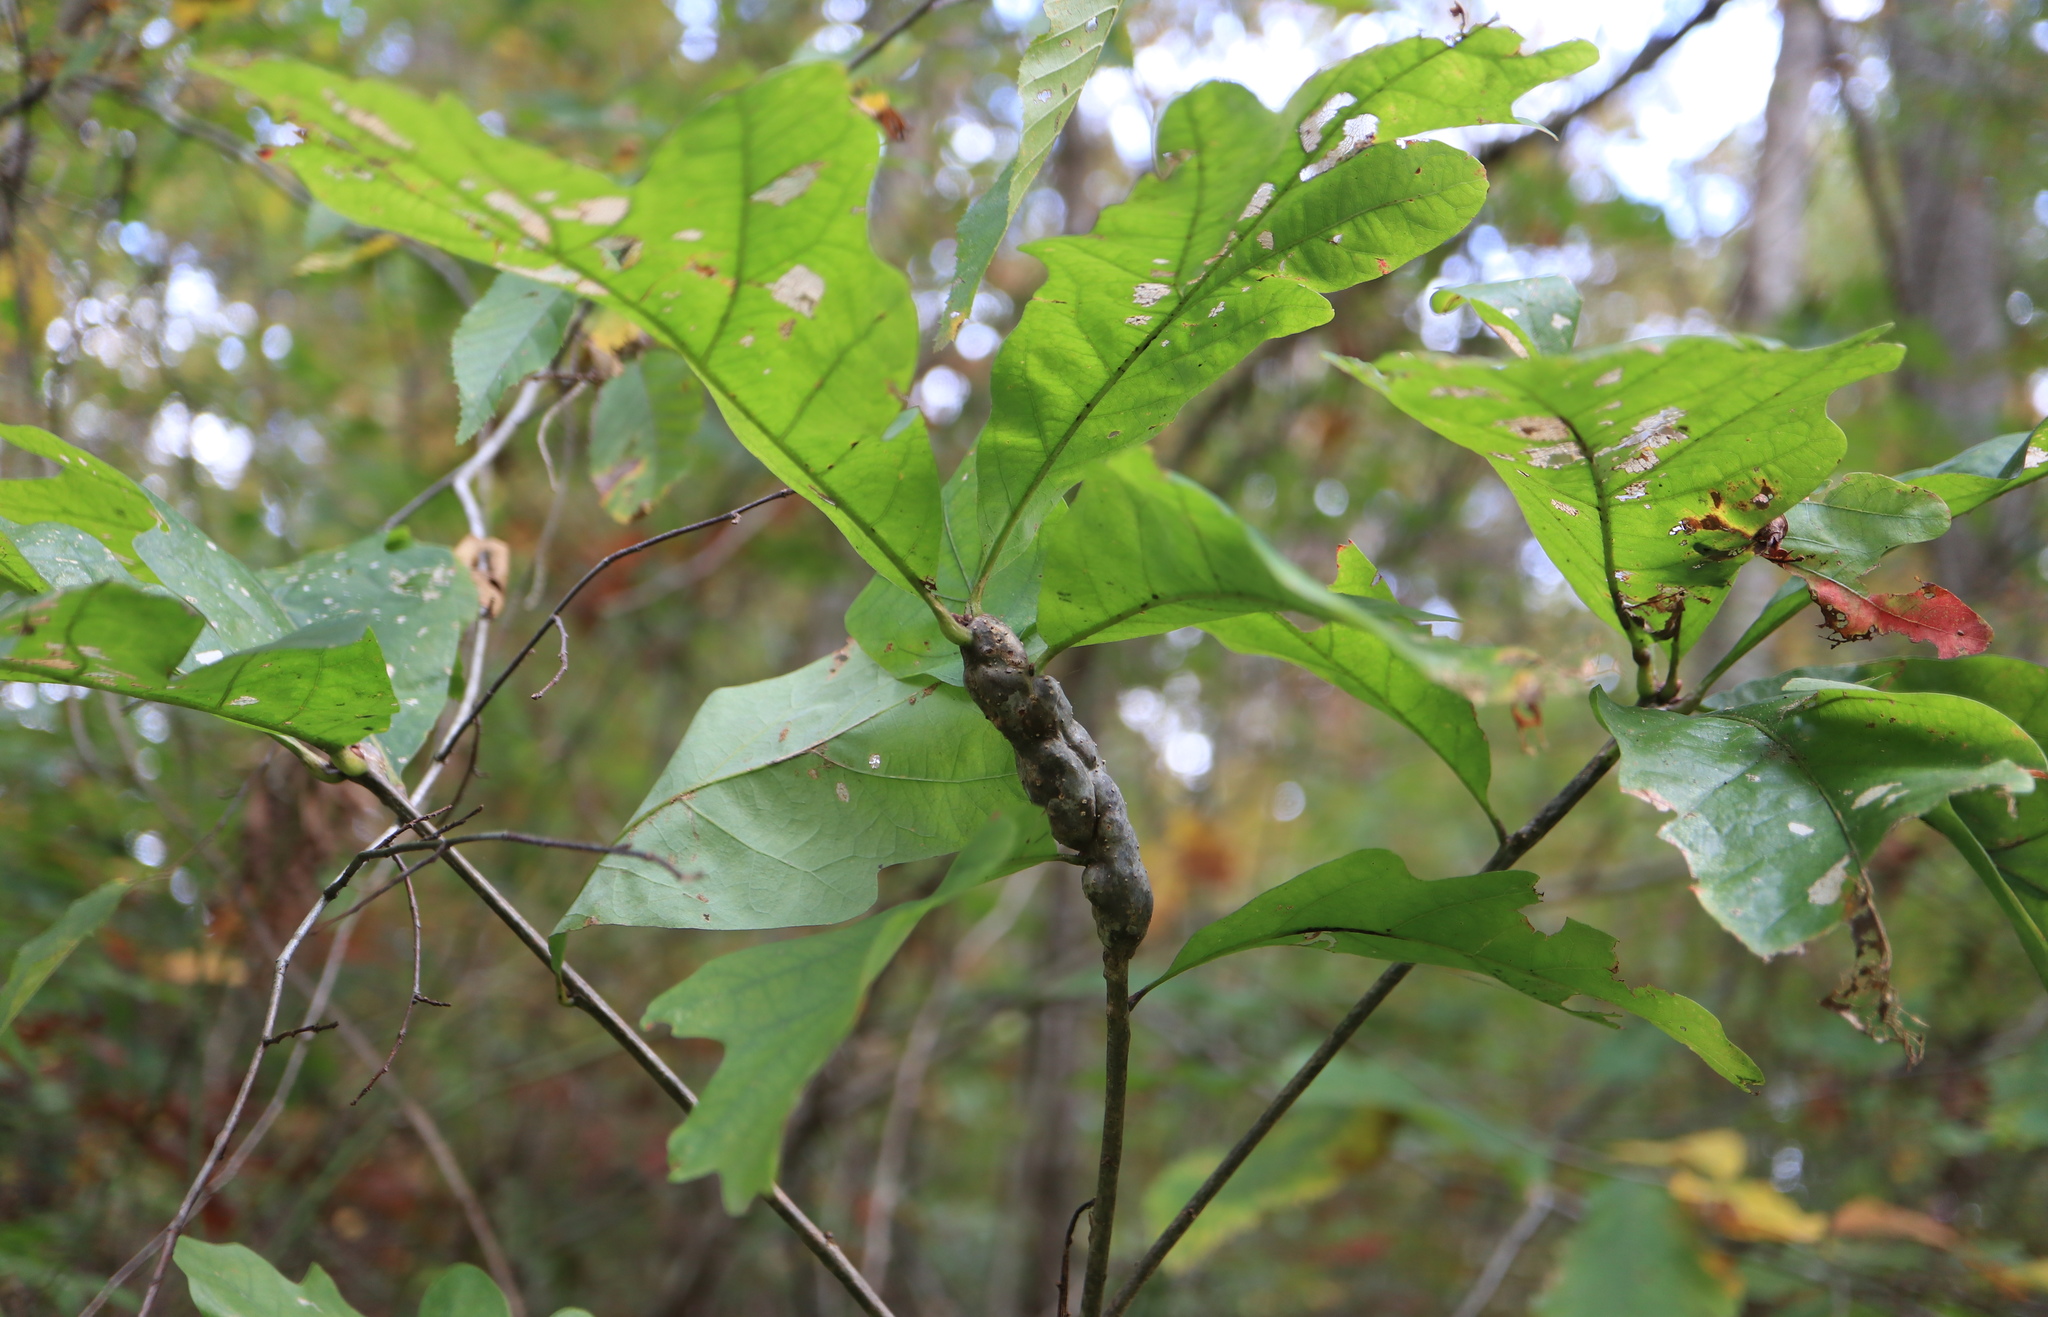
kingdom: Animalia
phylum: Arthropoda
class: Insecta
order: Hymenoptera
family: Cynipidae
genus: Neuroterus
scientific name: Neuroterus quercusbaccarum
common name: Common spangle gall
